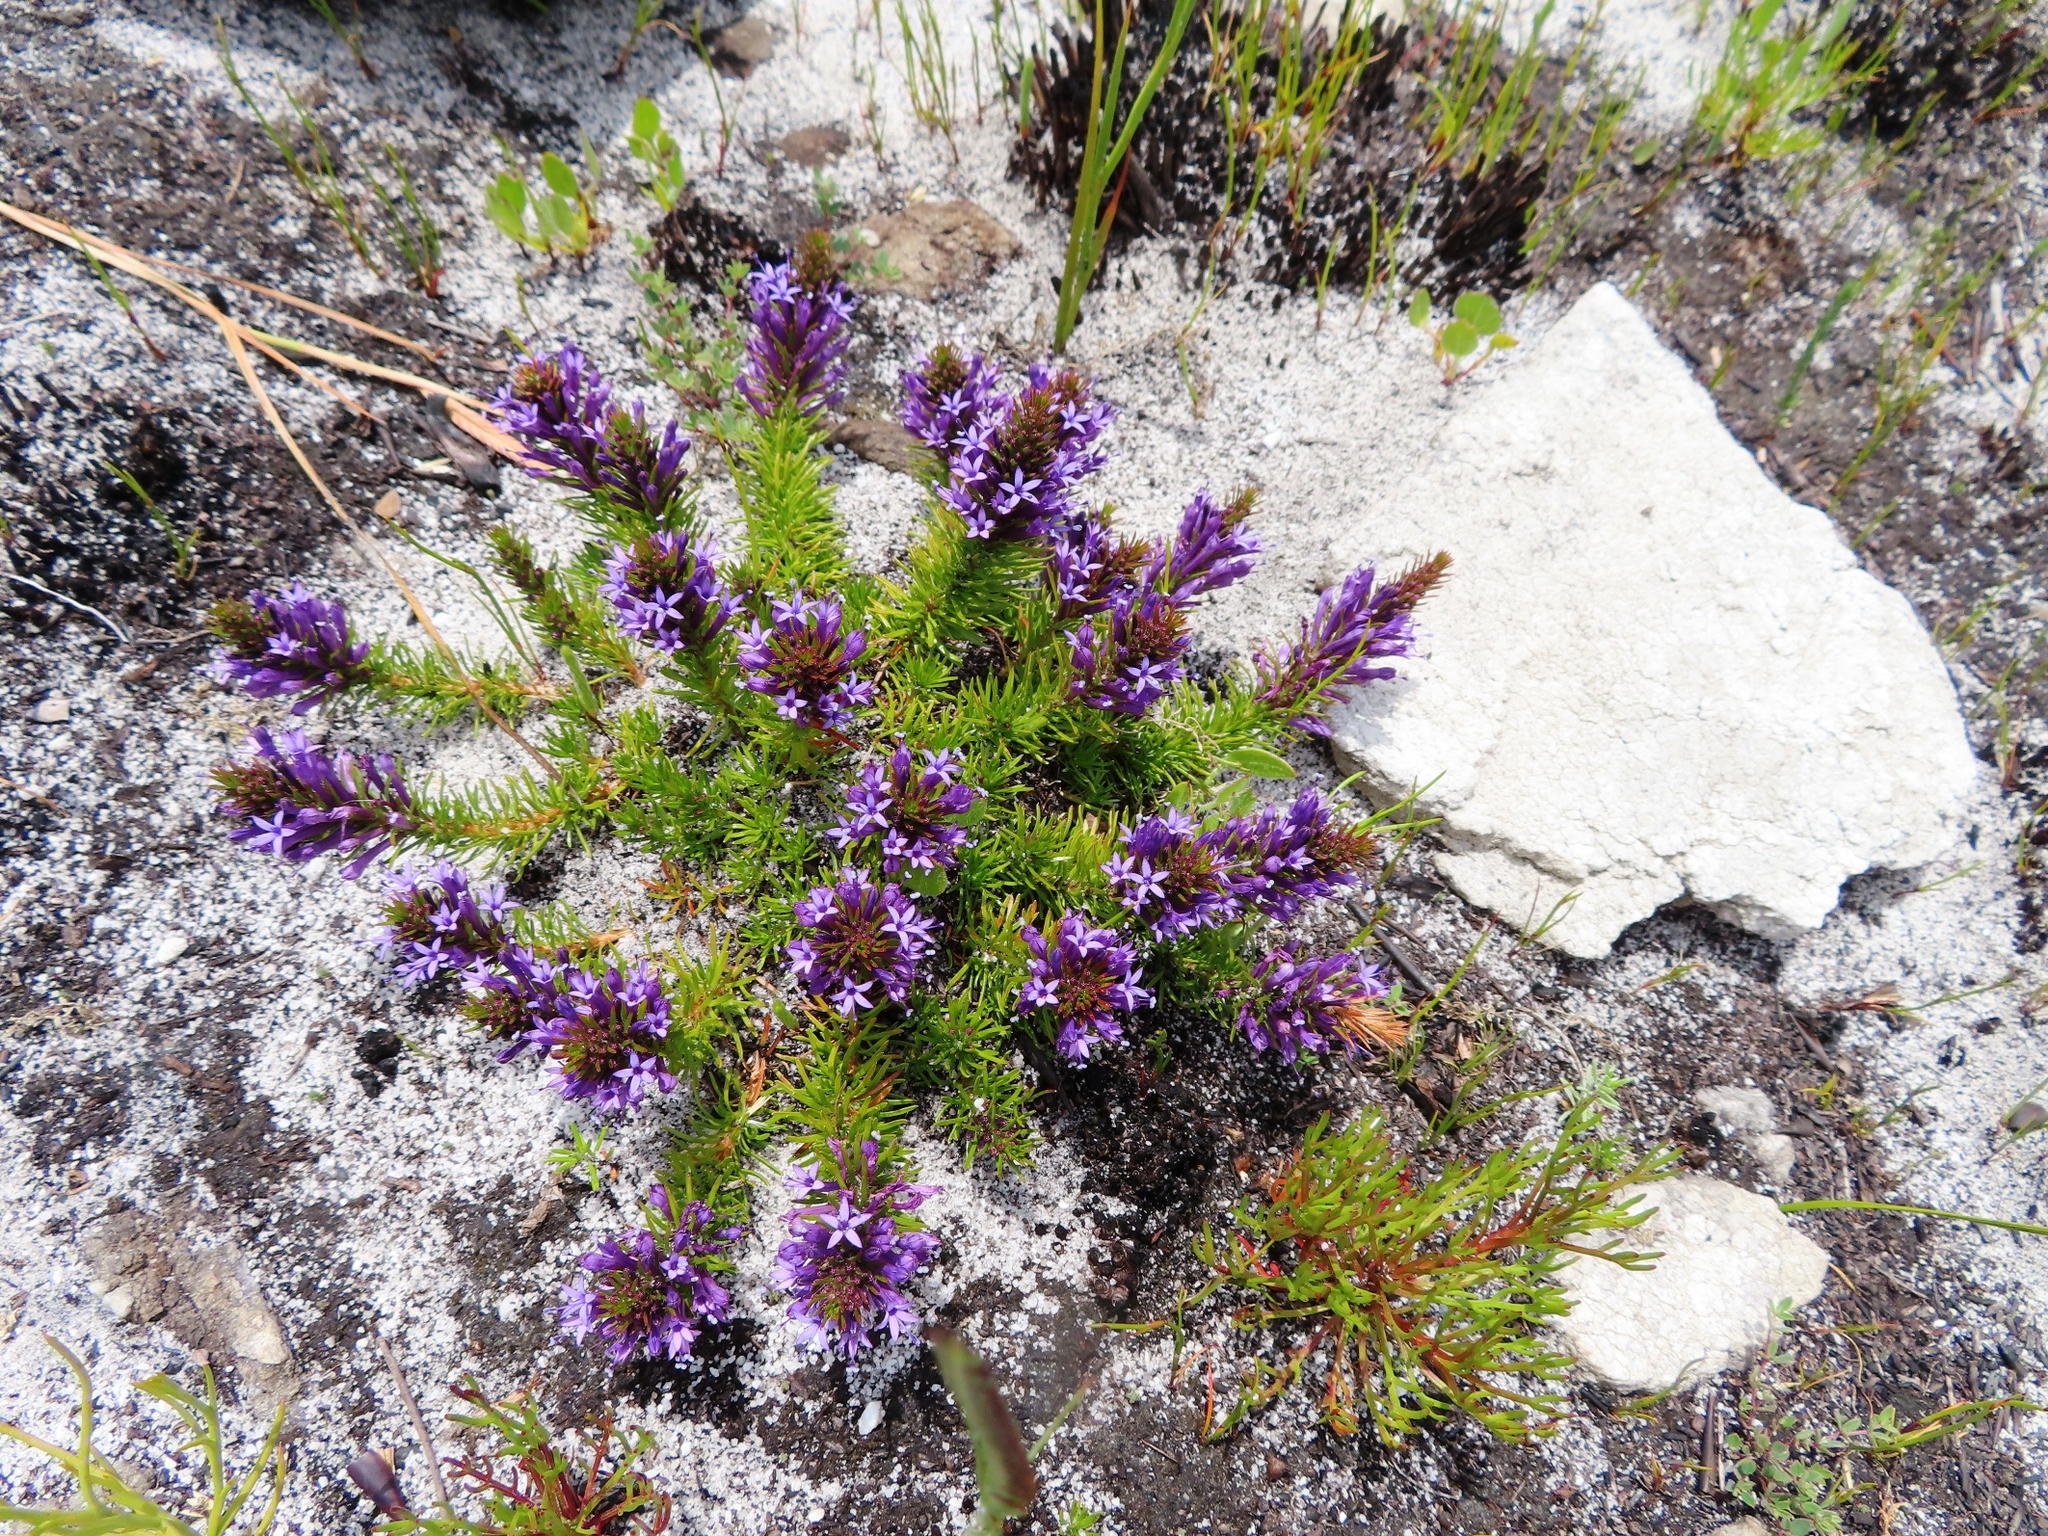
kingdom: Plantae
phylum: Tracheophyta
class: Magnoliopsida
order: Asterales
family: Campanulaceae
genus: Merciera
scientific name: Merciera azurea
